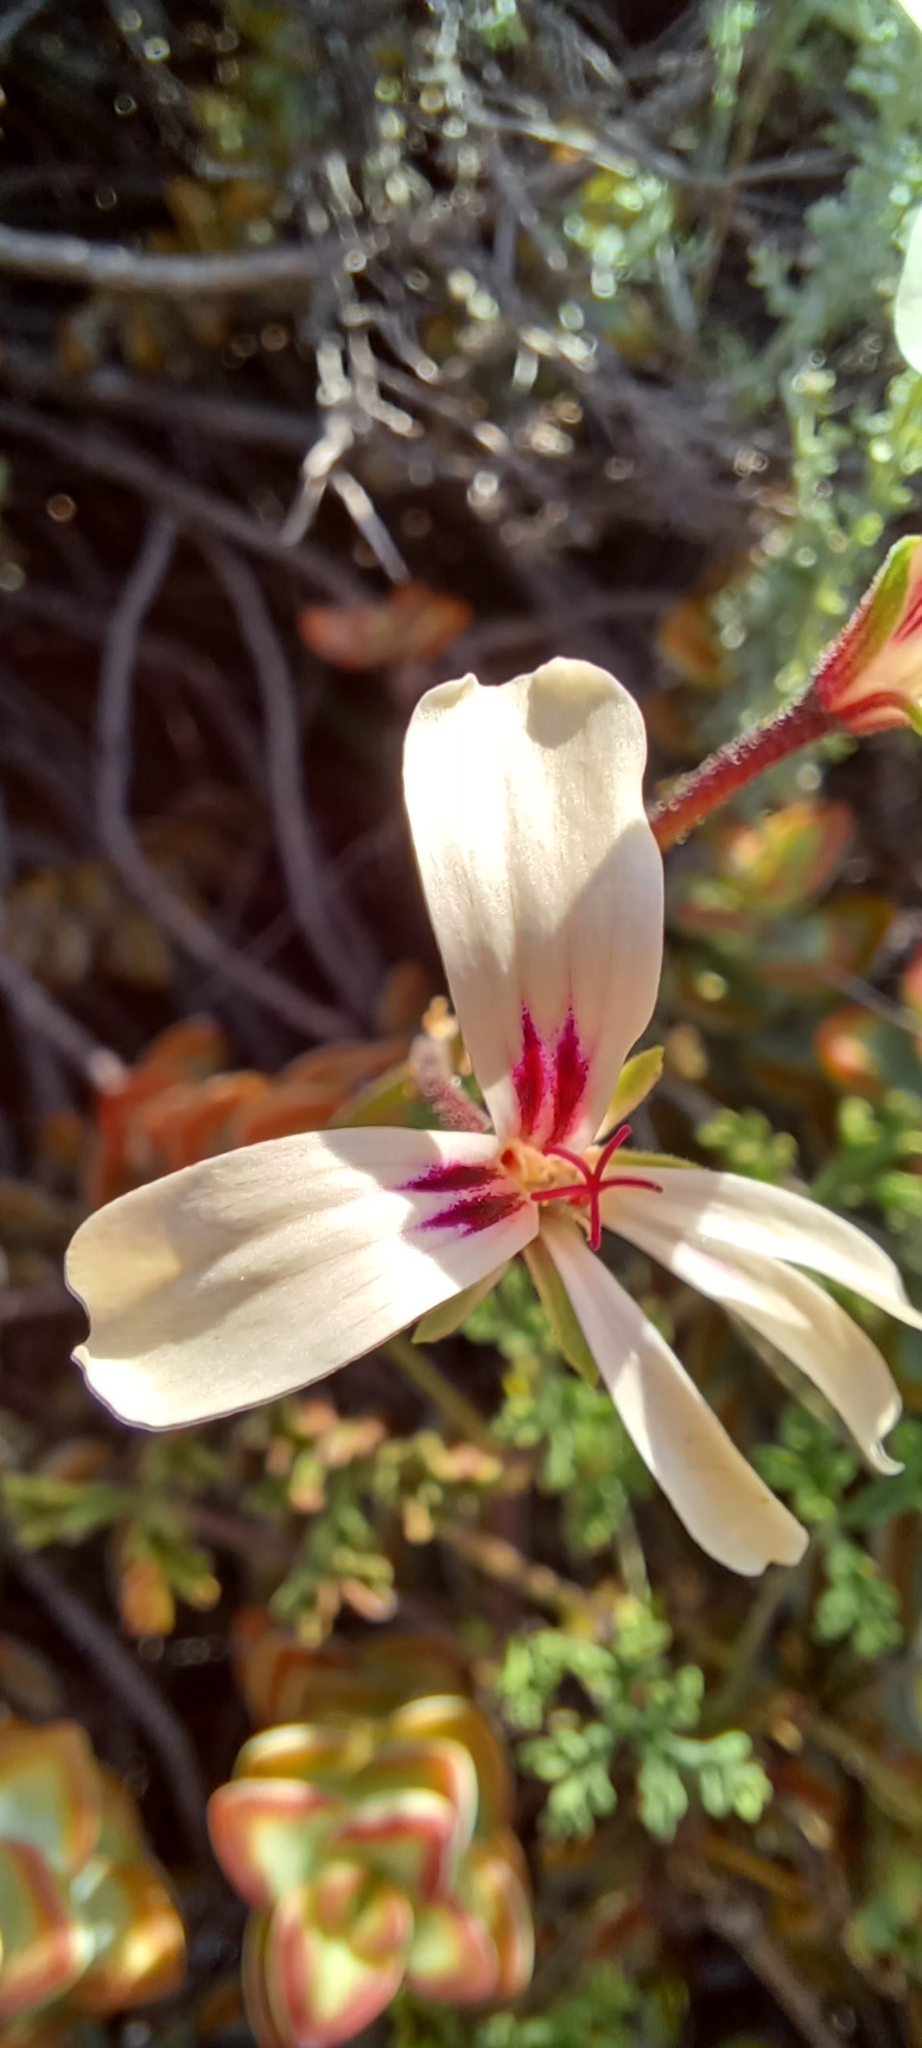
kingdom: Plantae
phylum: Tracheophyta
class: Magnoliopsida
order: Geraniales
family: Geraniaceae
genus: Pelargonium
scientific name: Pelargonium trifidum
